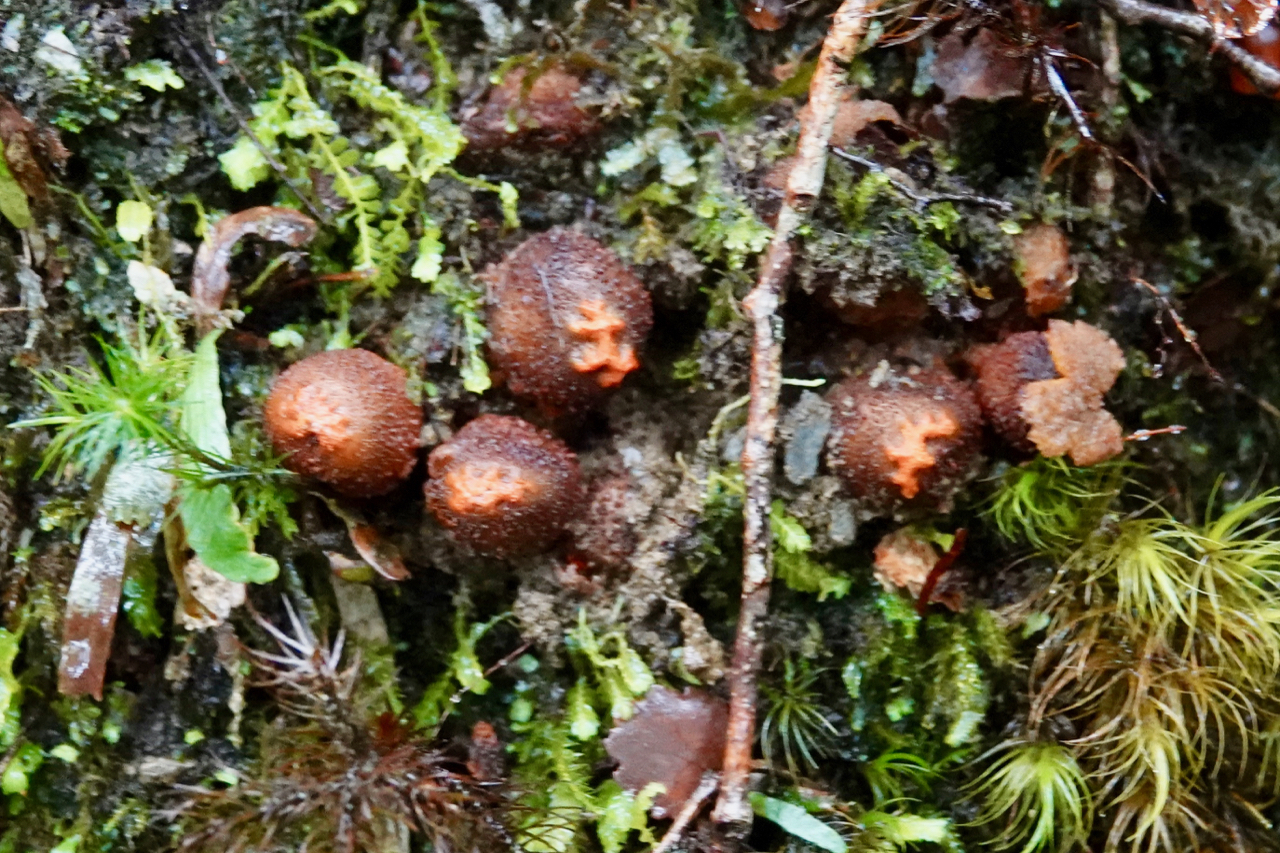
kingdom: Fungi
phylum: Basidiomycota
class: Agaricomycetes
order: Boletales
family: Calostomataceae
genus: Calostoma
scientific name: Calostoma rodwayi
